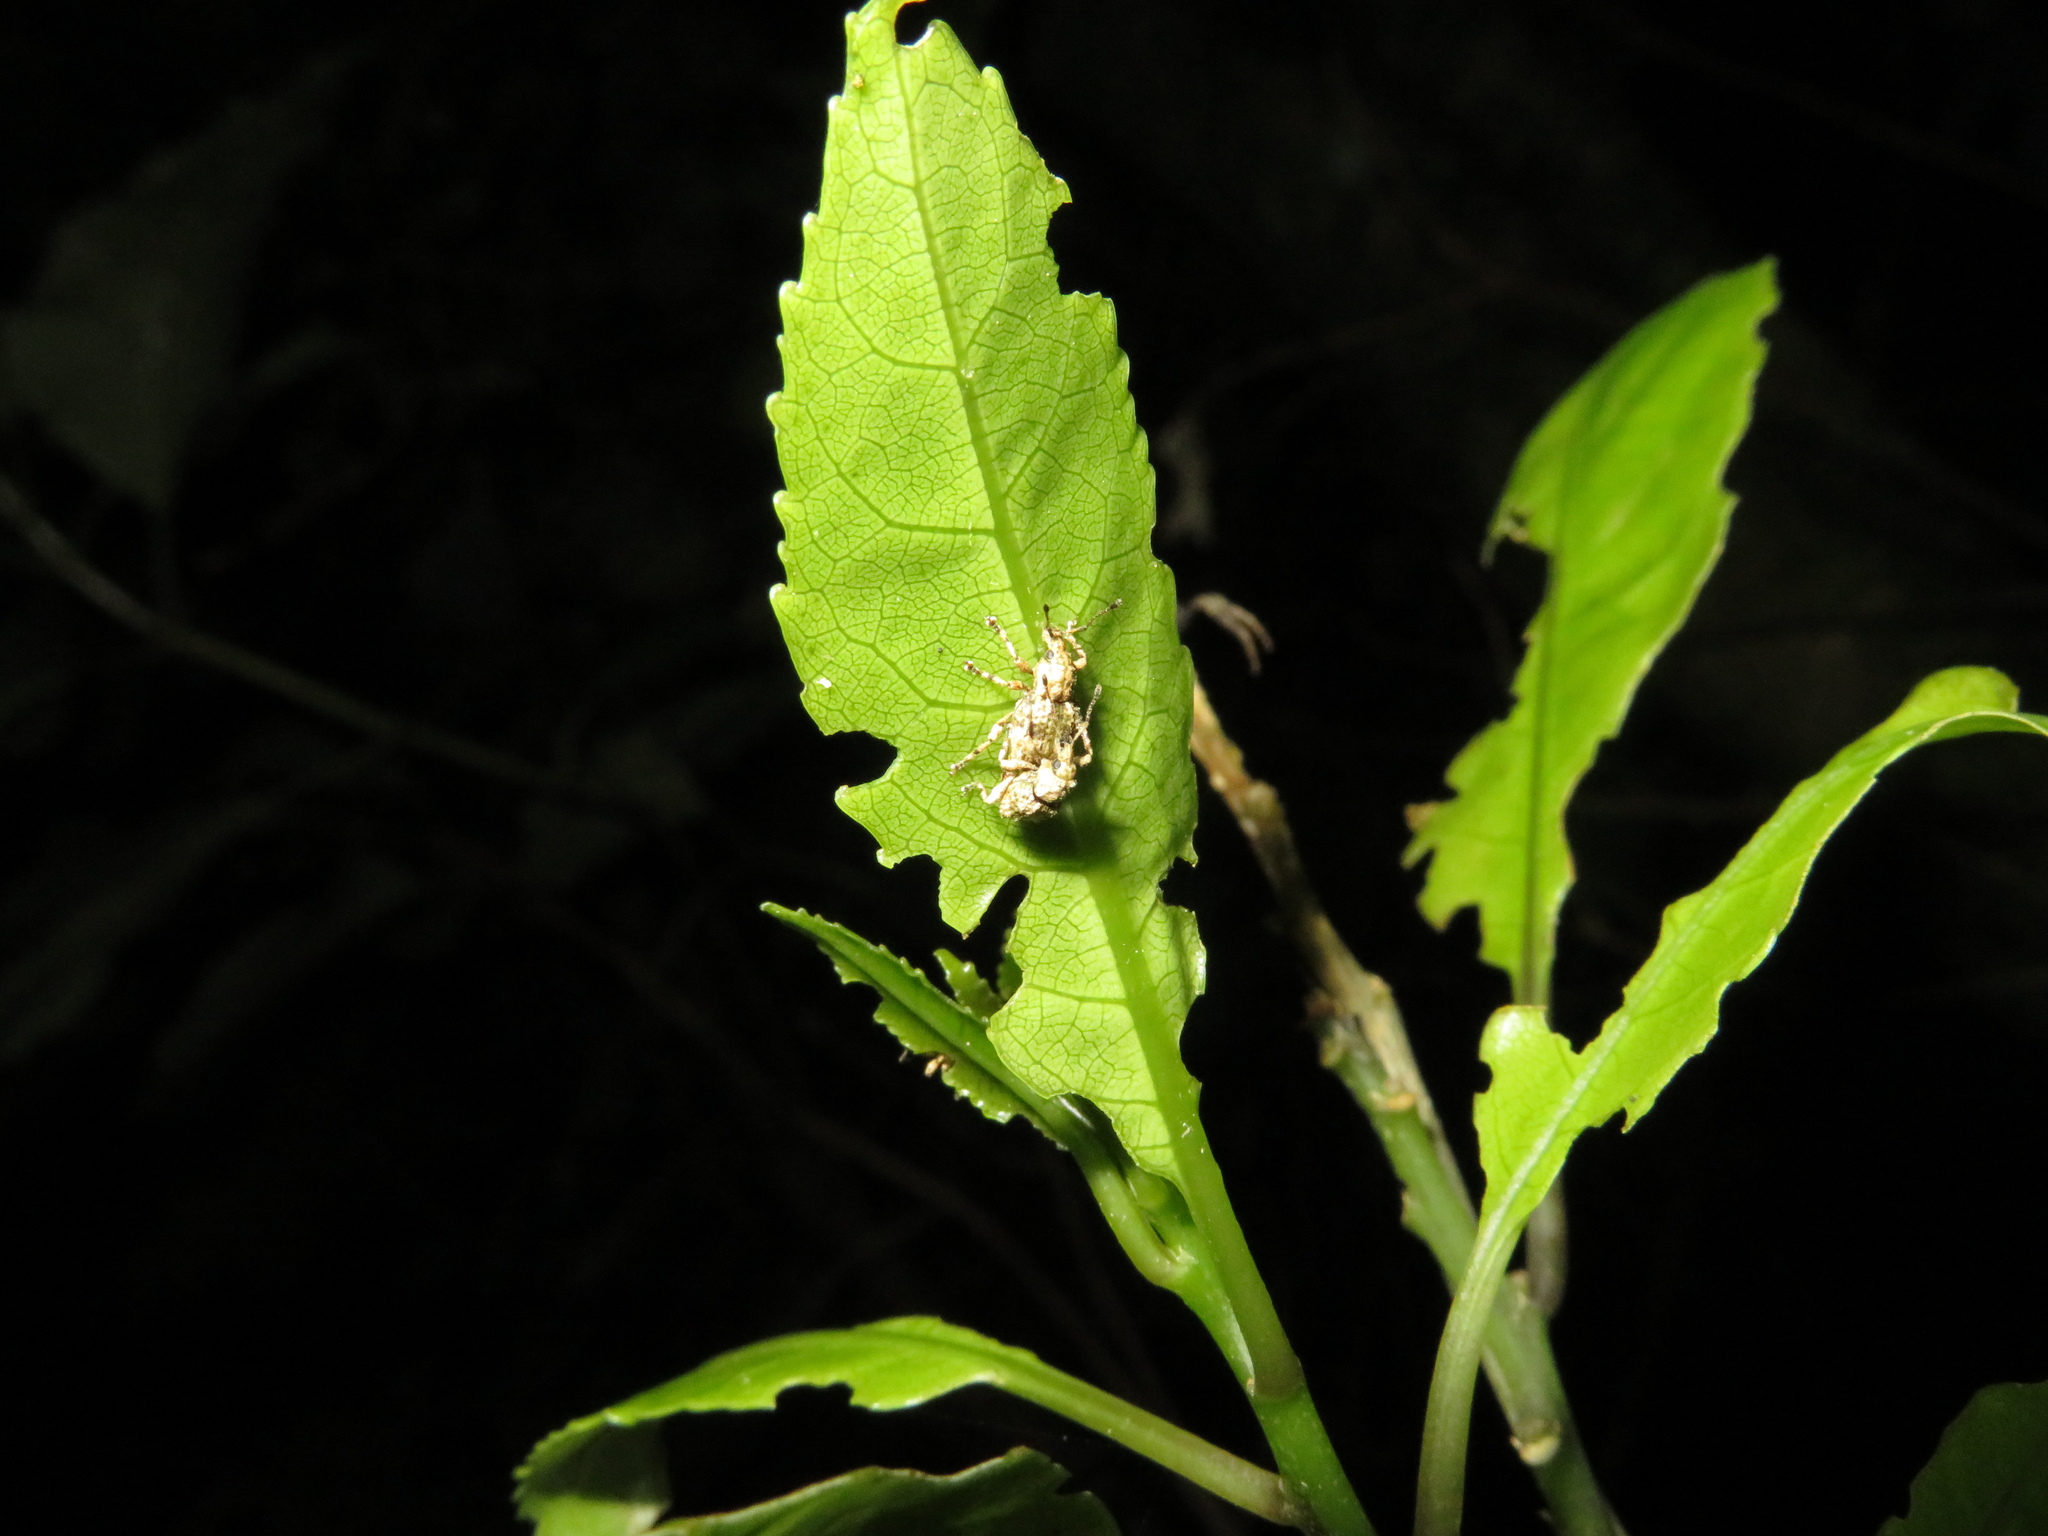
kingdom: Animalia
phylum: Arthropoda
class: Insecta
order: Coleoptera
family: Curculionidae
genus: Brachyolus
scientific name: Brachyolus punctatus
